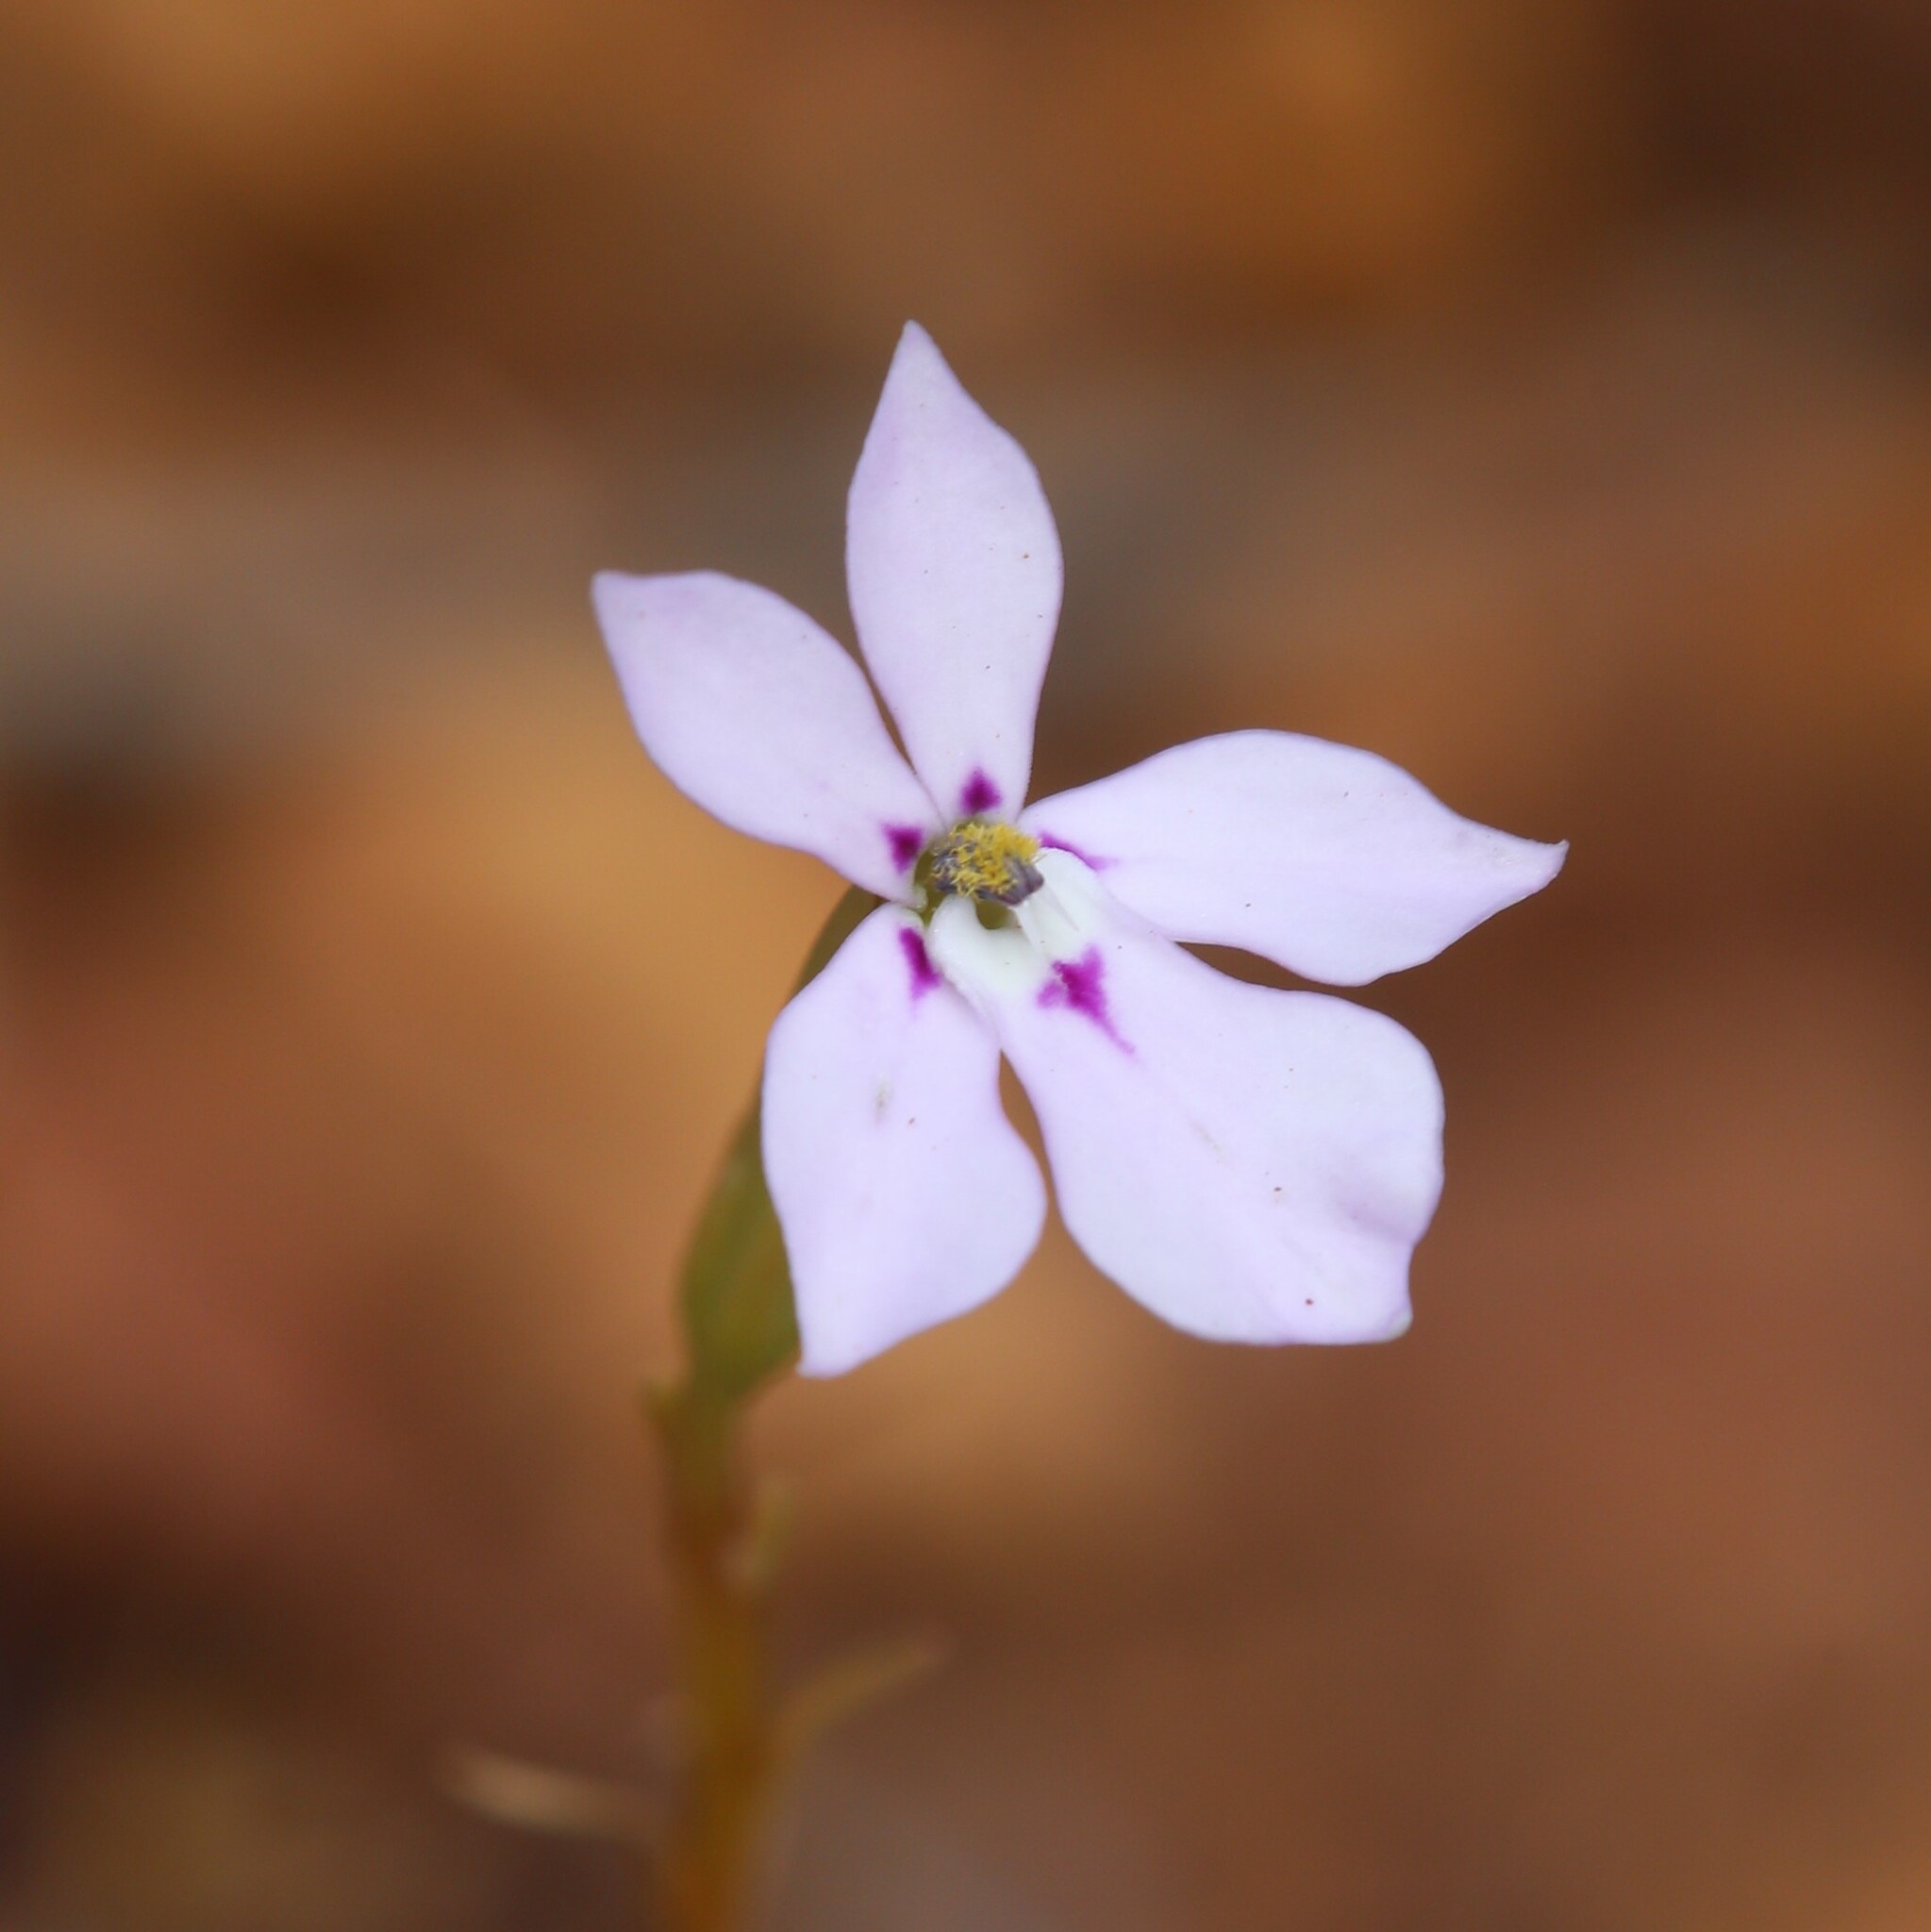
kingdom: Plantae
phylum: Tracheophyta
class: Magnoliopsida
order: Asterales
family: Campanulaceae
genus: Isotoma
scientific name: Isotoma hypocrateriformis
